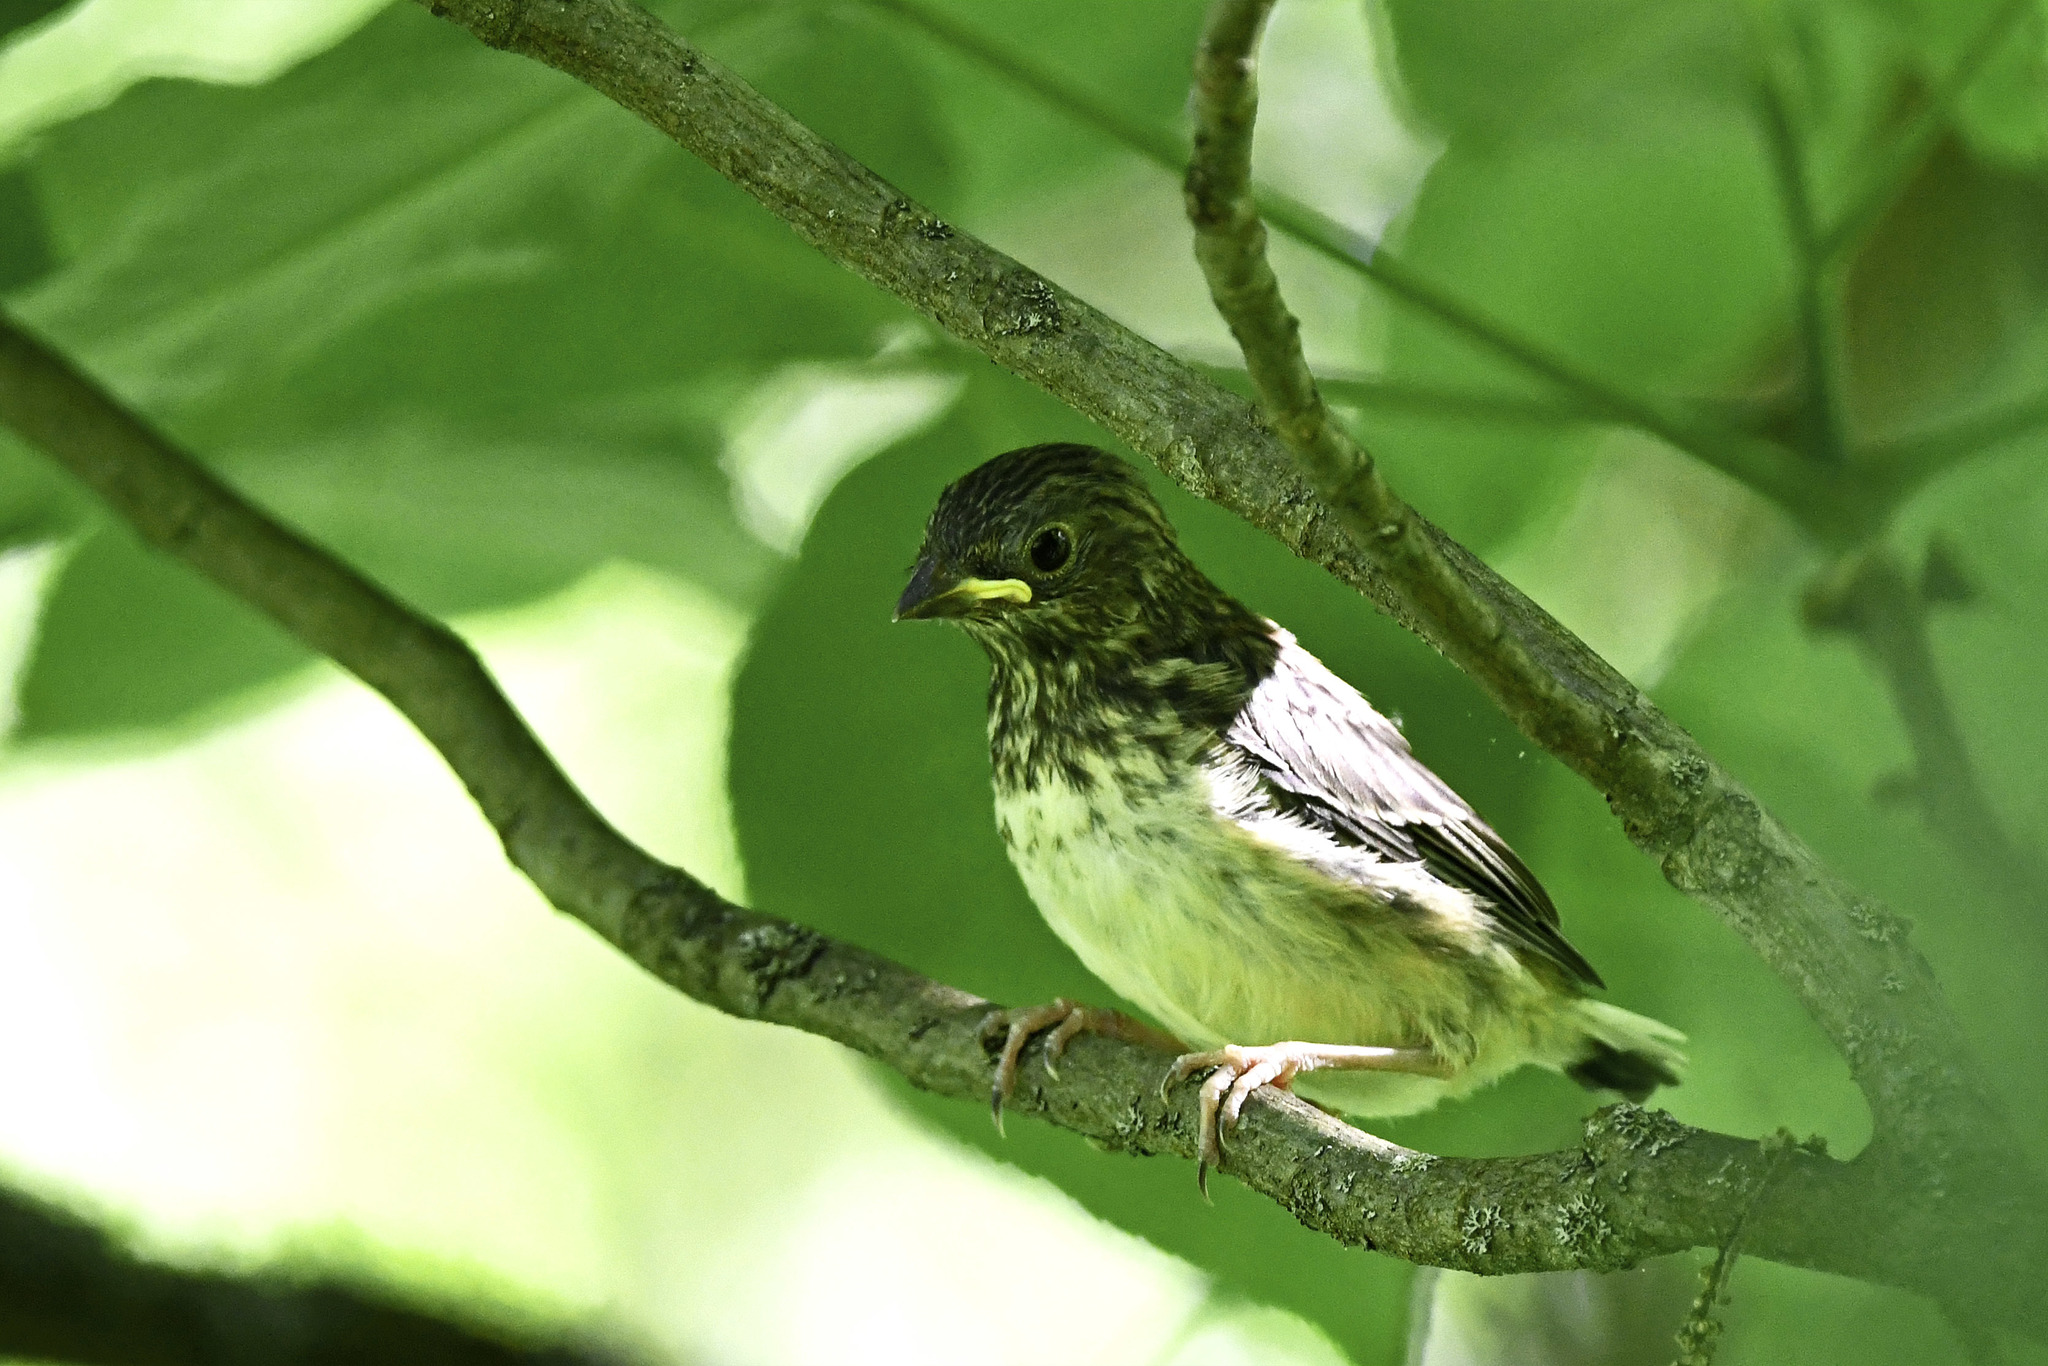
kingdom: Animalia
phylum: Chordata
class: Aves
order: Passeriformes
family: Passerellidae
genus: Junco
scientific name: Junco hyemalis
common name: Dark-eyed junco
